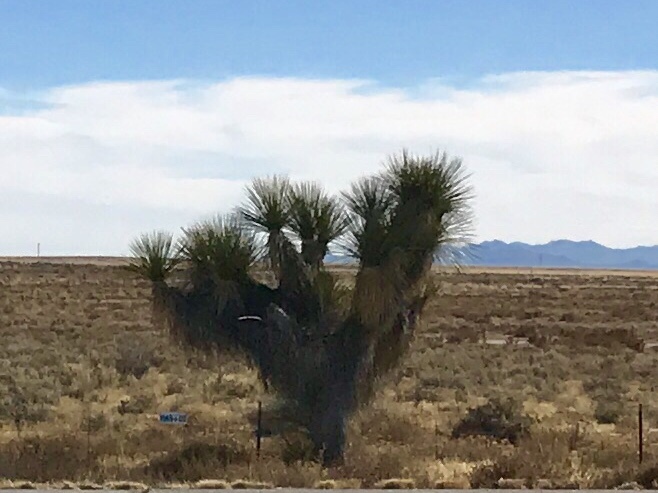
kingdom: Plantae
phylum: Tracheophyta
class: Liliopsida
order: Asparagales
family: Asparagaceae
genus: Yucca
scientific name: Yucca elata
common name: Palmella
